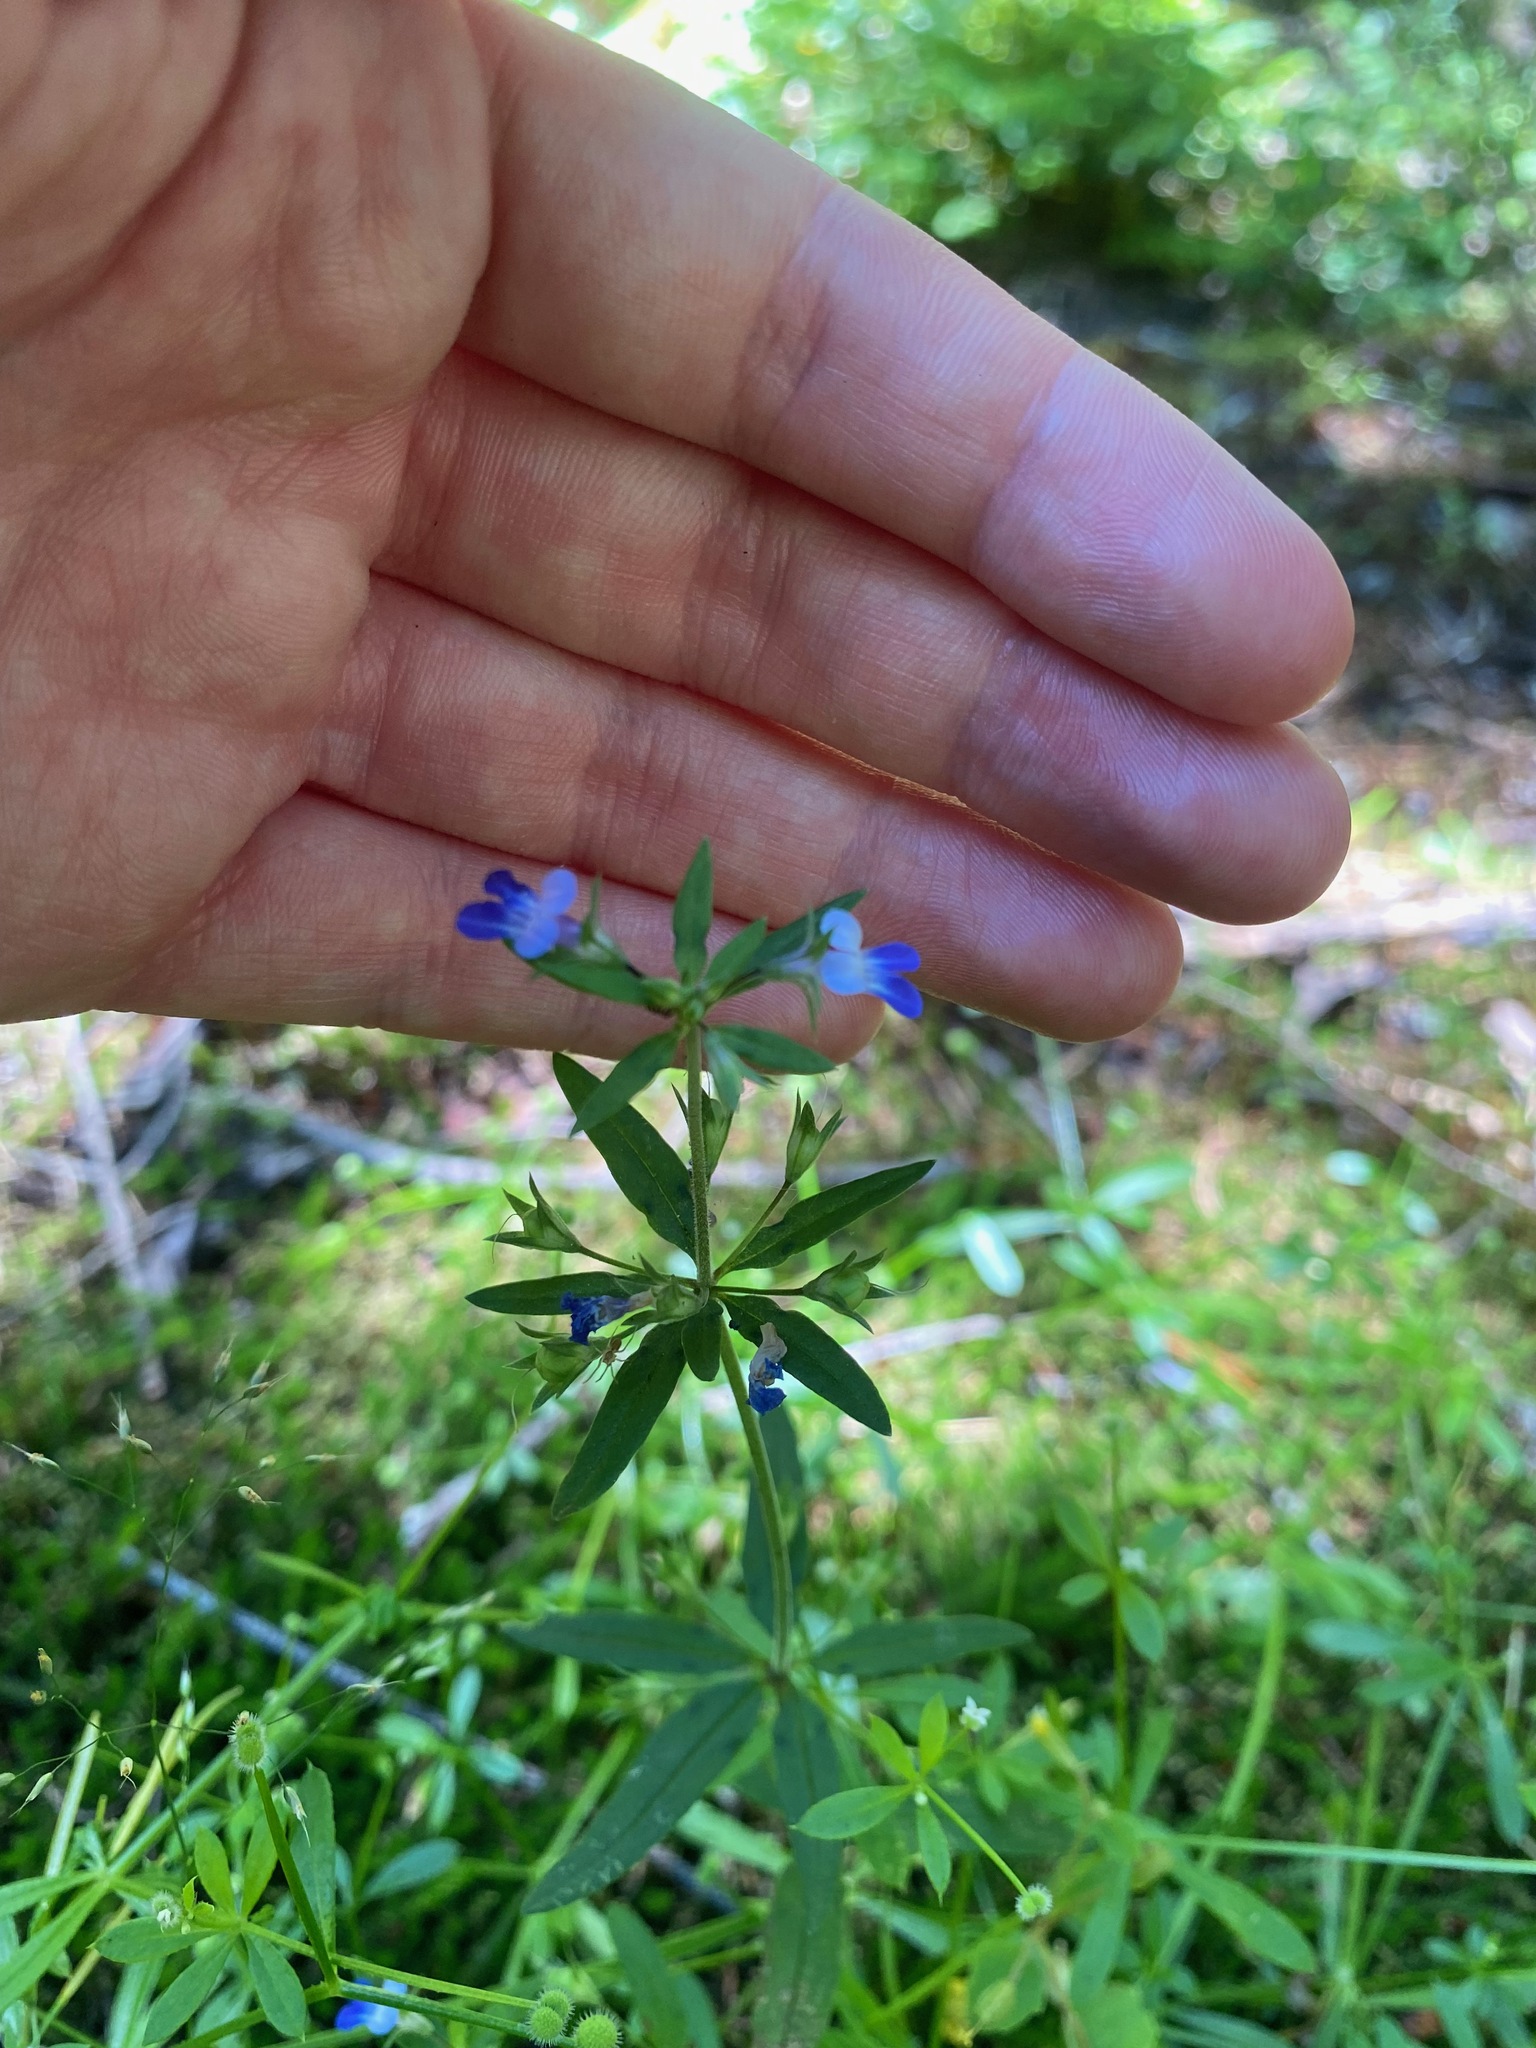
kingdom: Plantae
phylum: Tracheophyta
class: Magnoliopsida
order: Lamiales
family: Plantaginaceae
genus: Collinsia
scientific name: Collinsia parviflora
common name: Blue-lips
